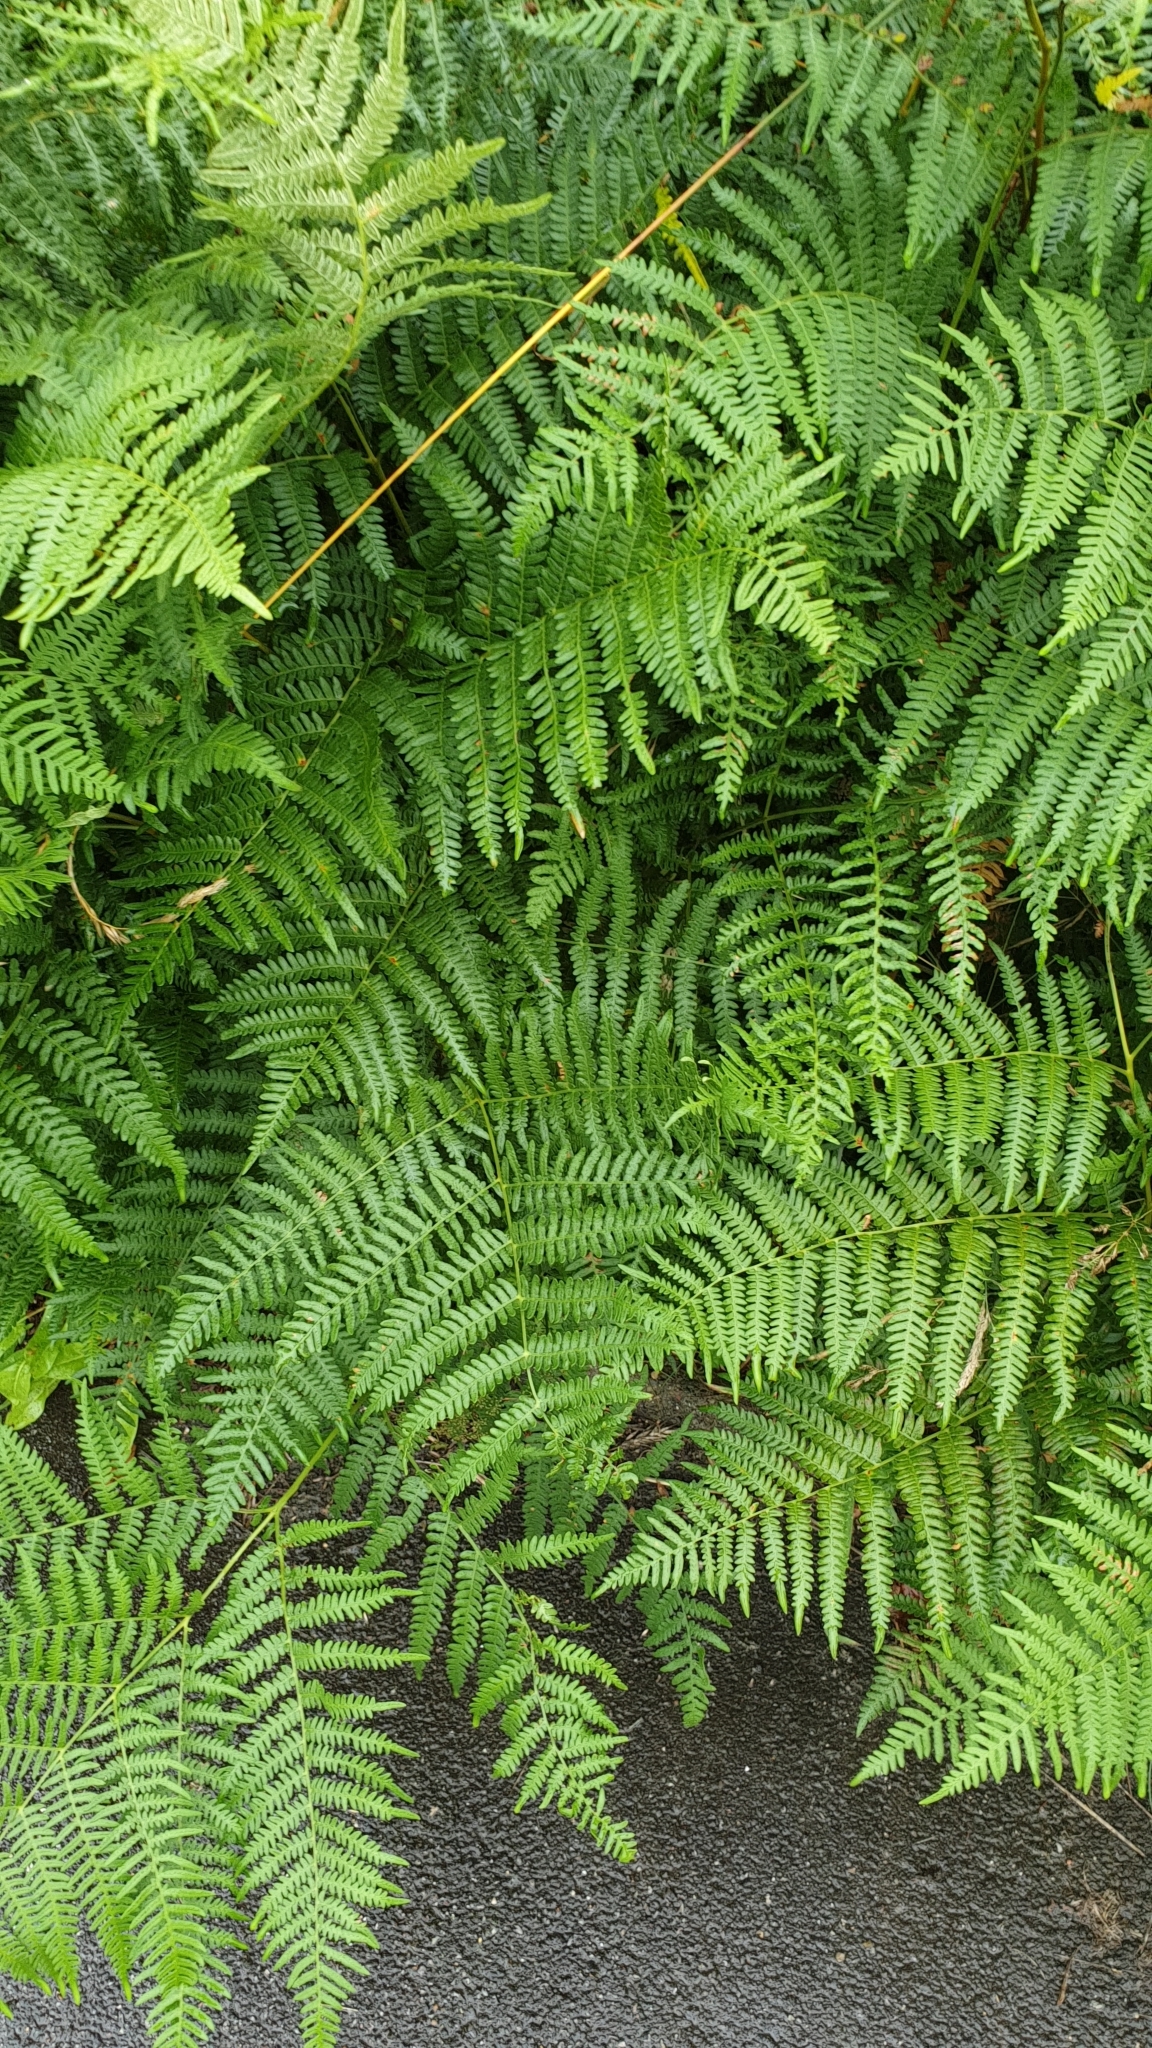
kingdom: Plantae
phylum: Tracheophyta
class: Polypodiopsida
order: Polypodiales
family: Dennstaedtiaceae
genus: Pteridium
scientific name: Pteridium aquilinum
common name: Bracken
